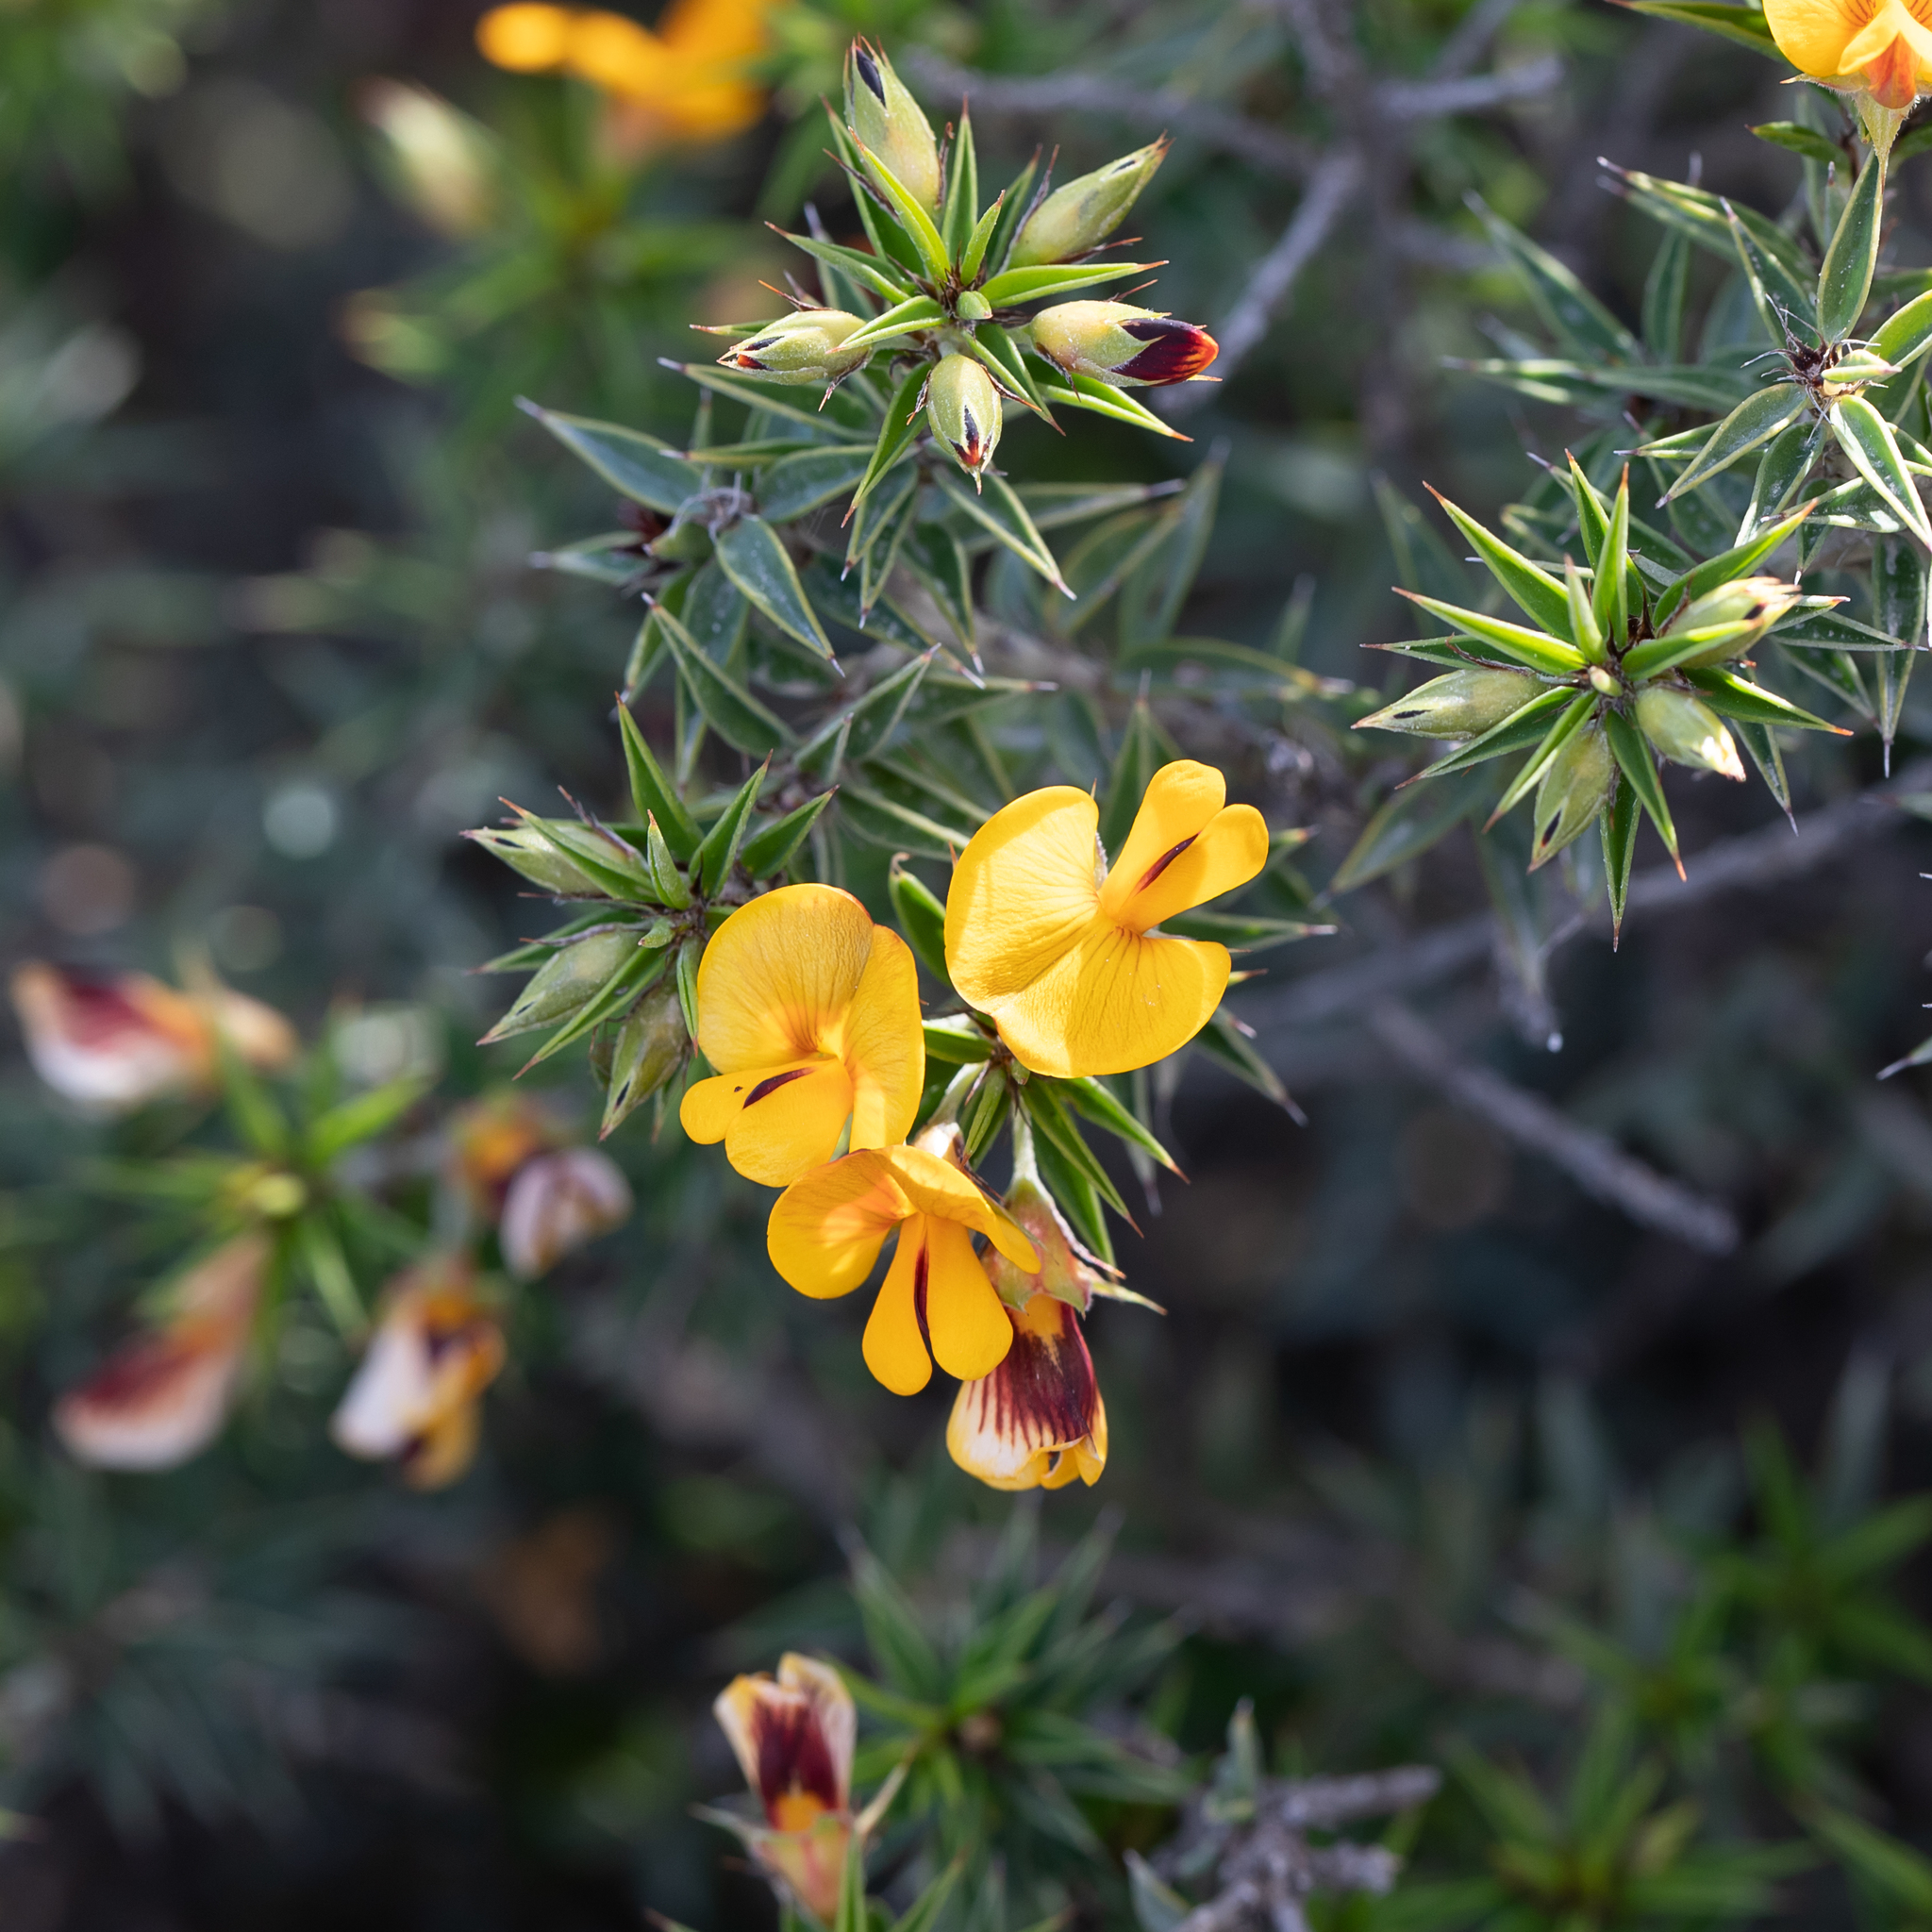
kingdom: Plantae
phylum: Tracheophyta
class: Magnoliopsida
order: Fabales
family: Fabaceae
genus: Pultenaea
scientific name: Pultenaea acerosa
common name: Bristly bush-pea
